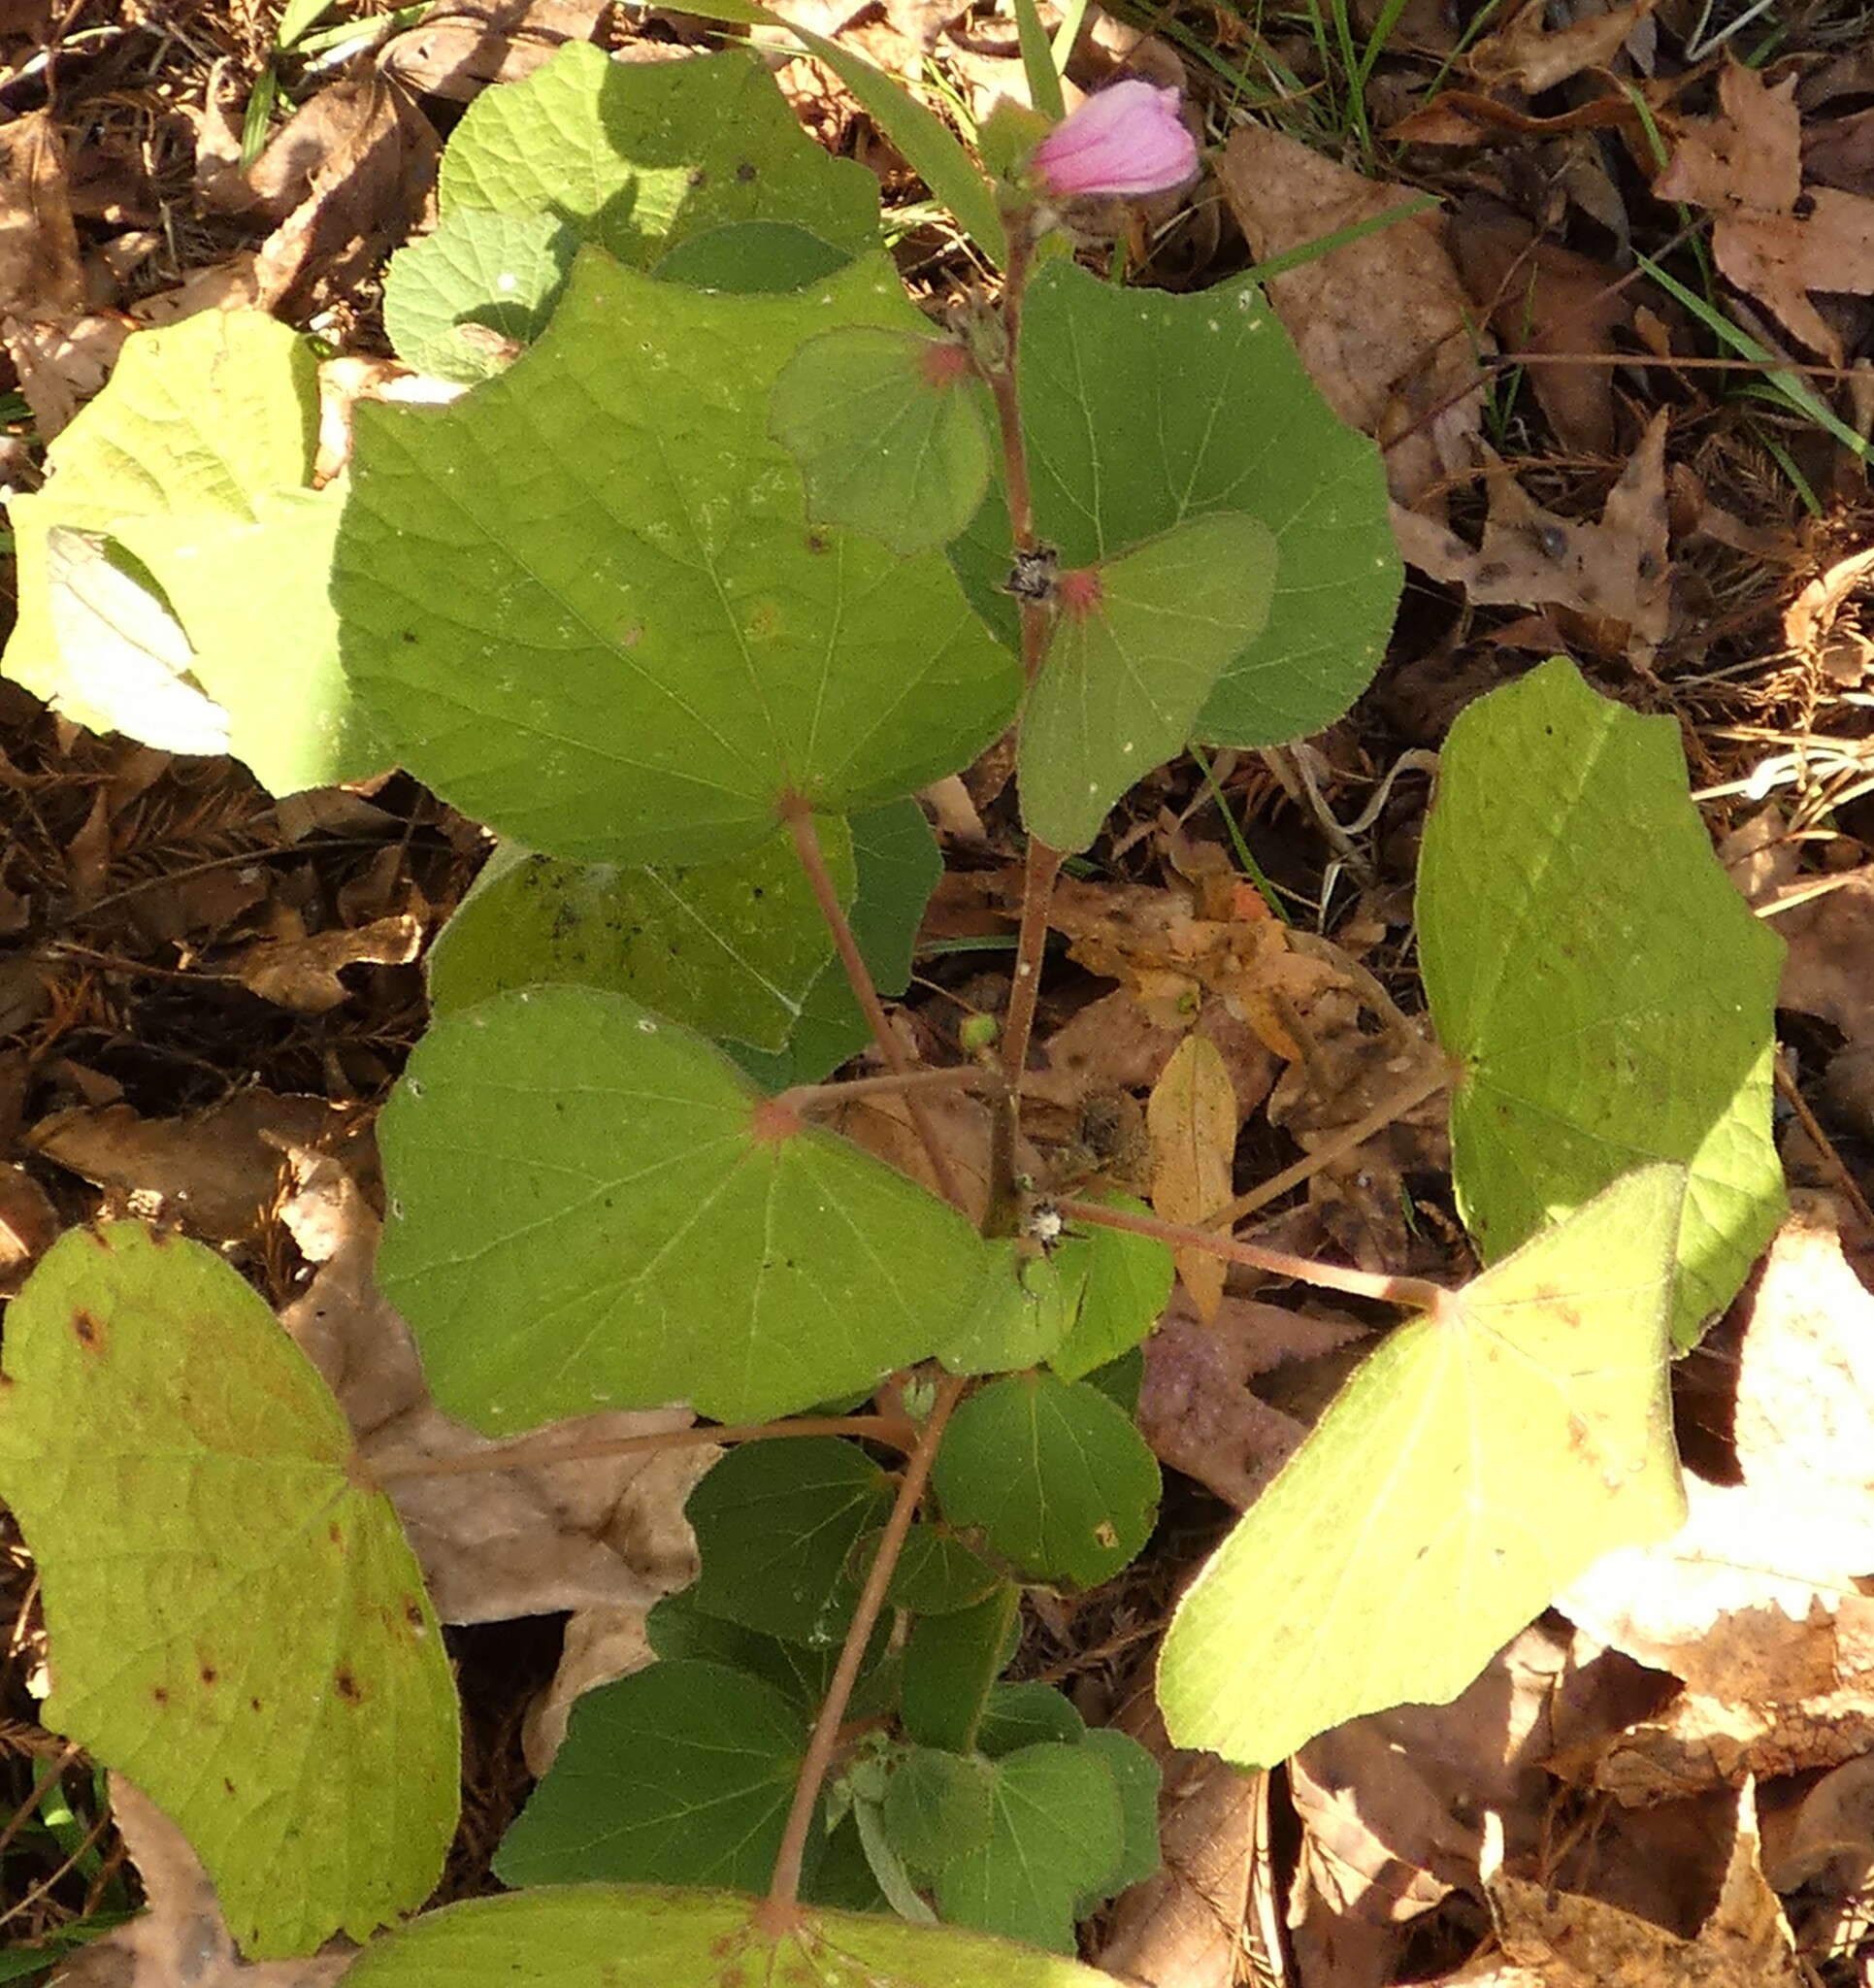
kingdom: Plantae
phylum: Tracheophyta
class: Magnoliopsida
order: Malvales
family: Malvaceae
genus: Urena
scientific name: Urena lobata
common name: Caesarweed
